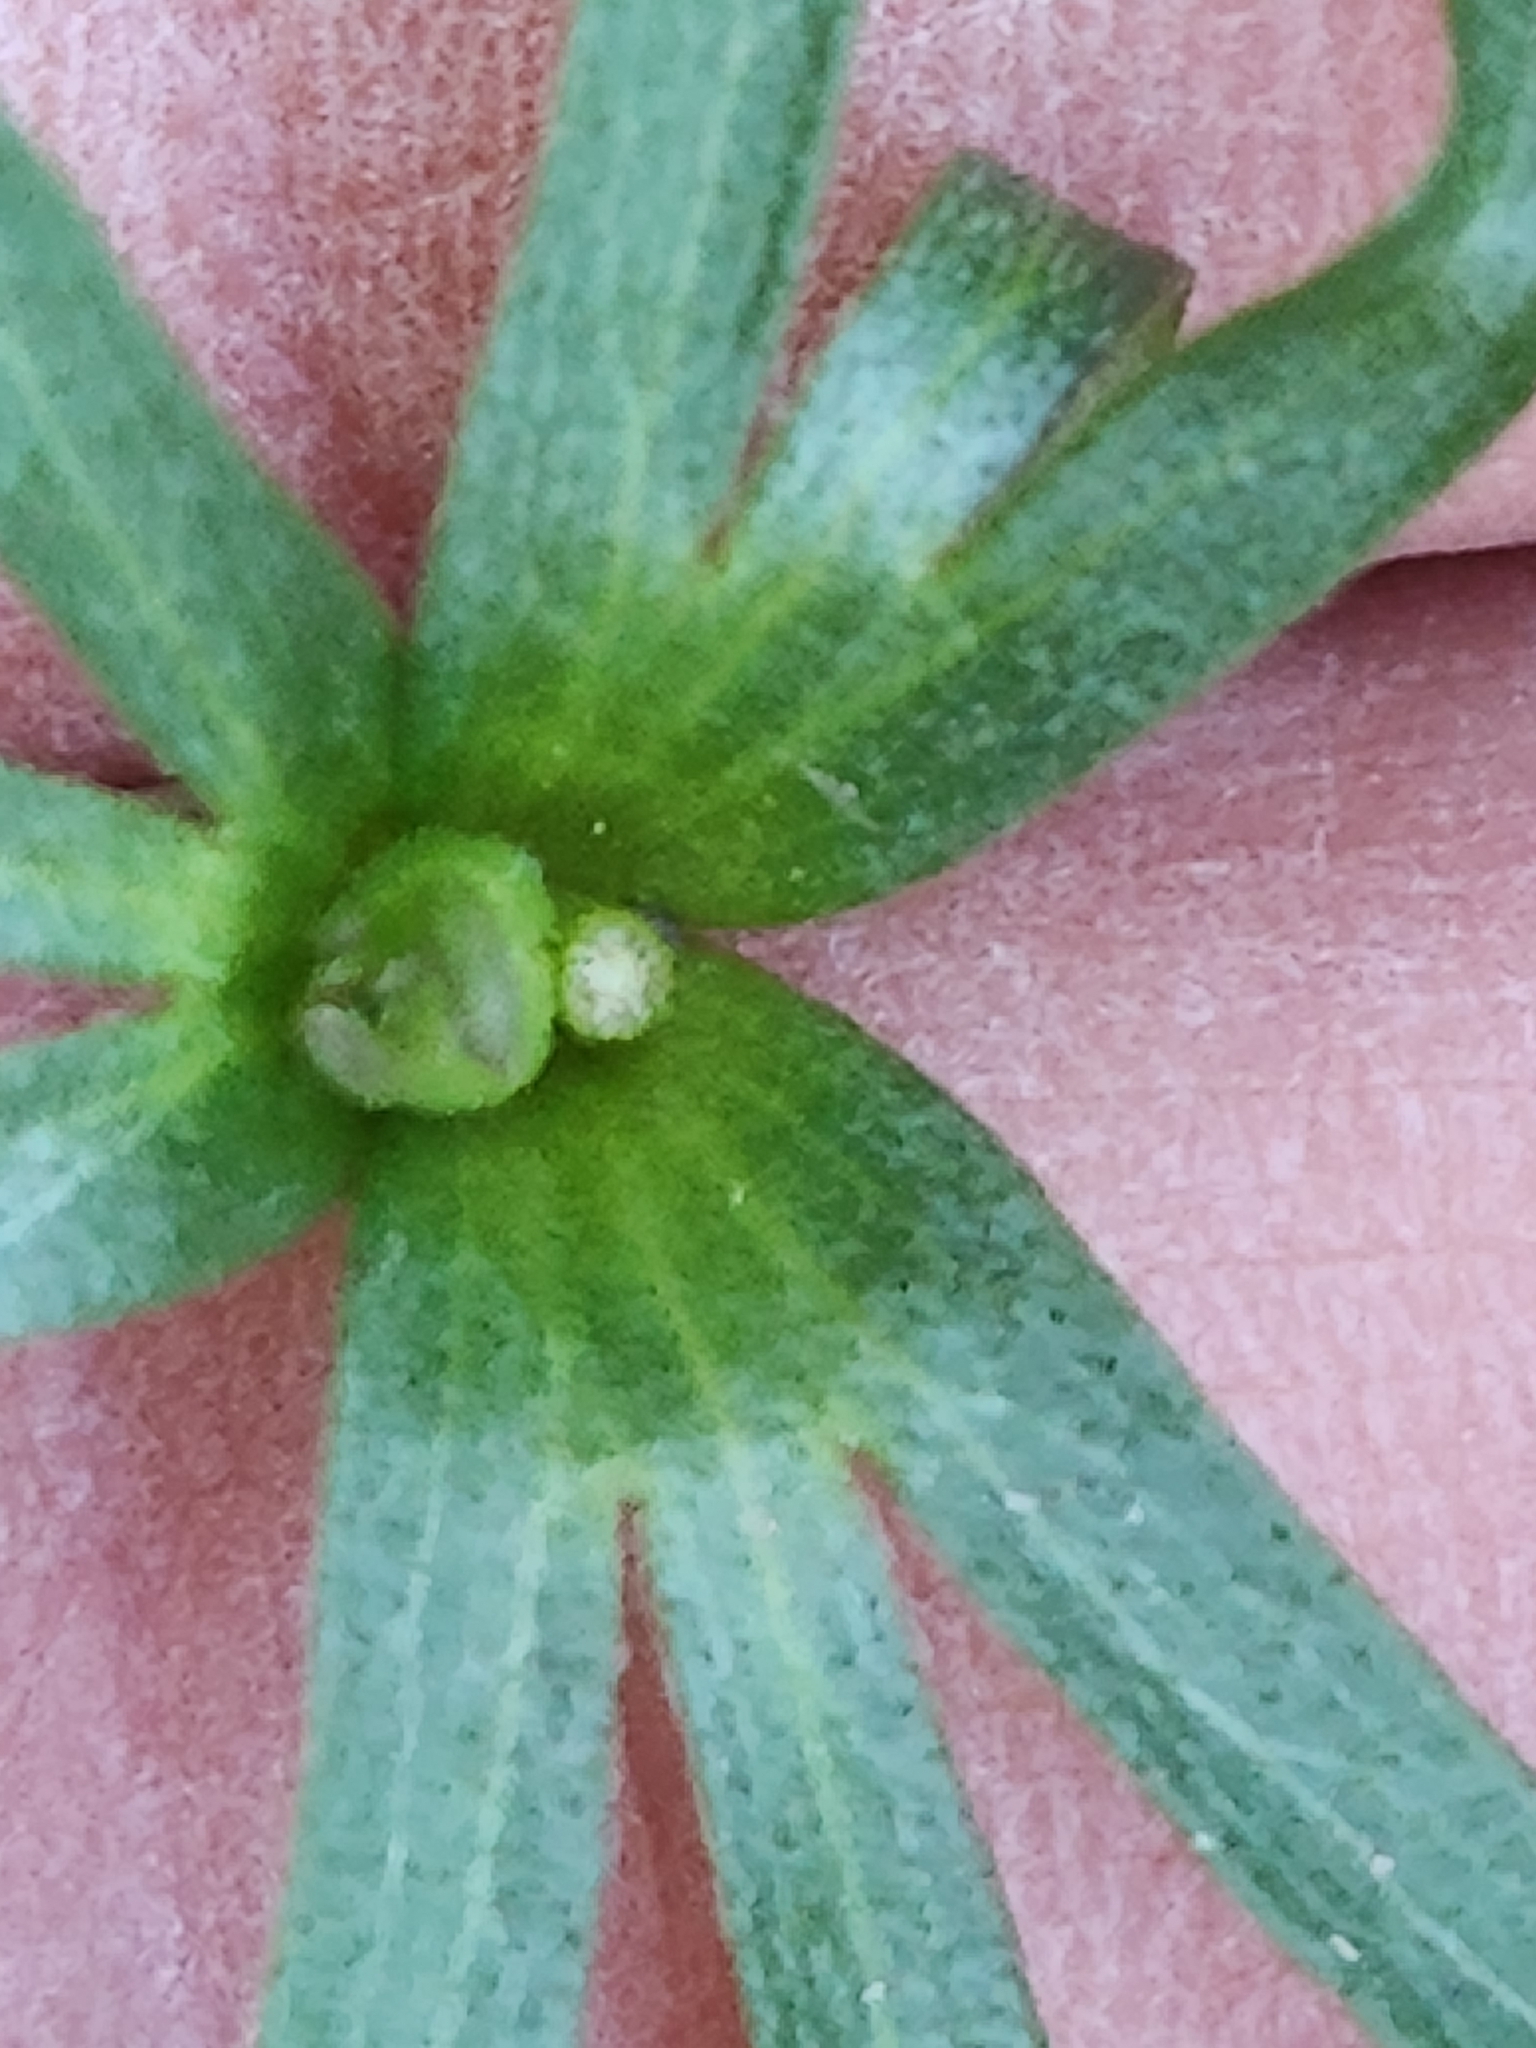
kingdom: Plantae
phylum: Tracheophyta
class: Magnoliopsida
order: Ranunculales
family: Ranunculaceae
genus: Anemone
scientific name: Anemone edwardsiana
